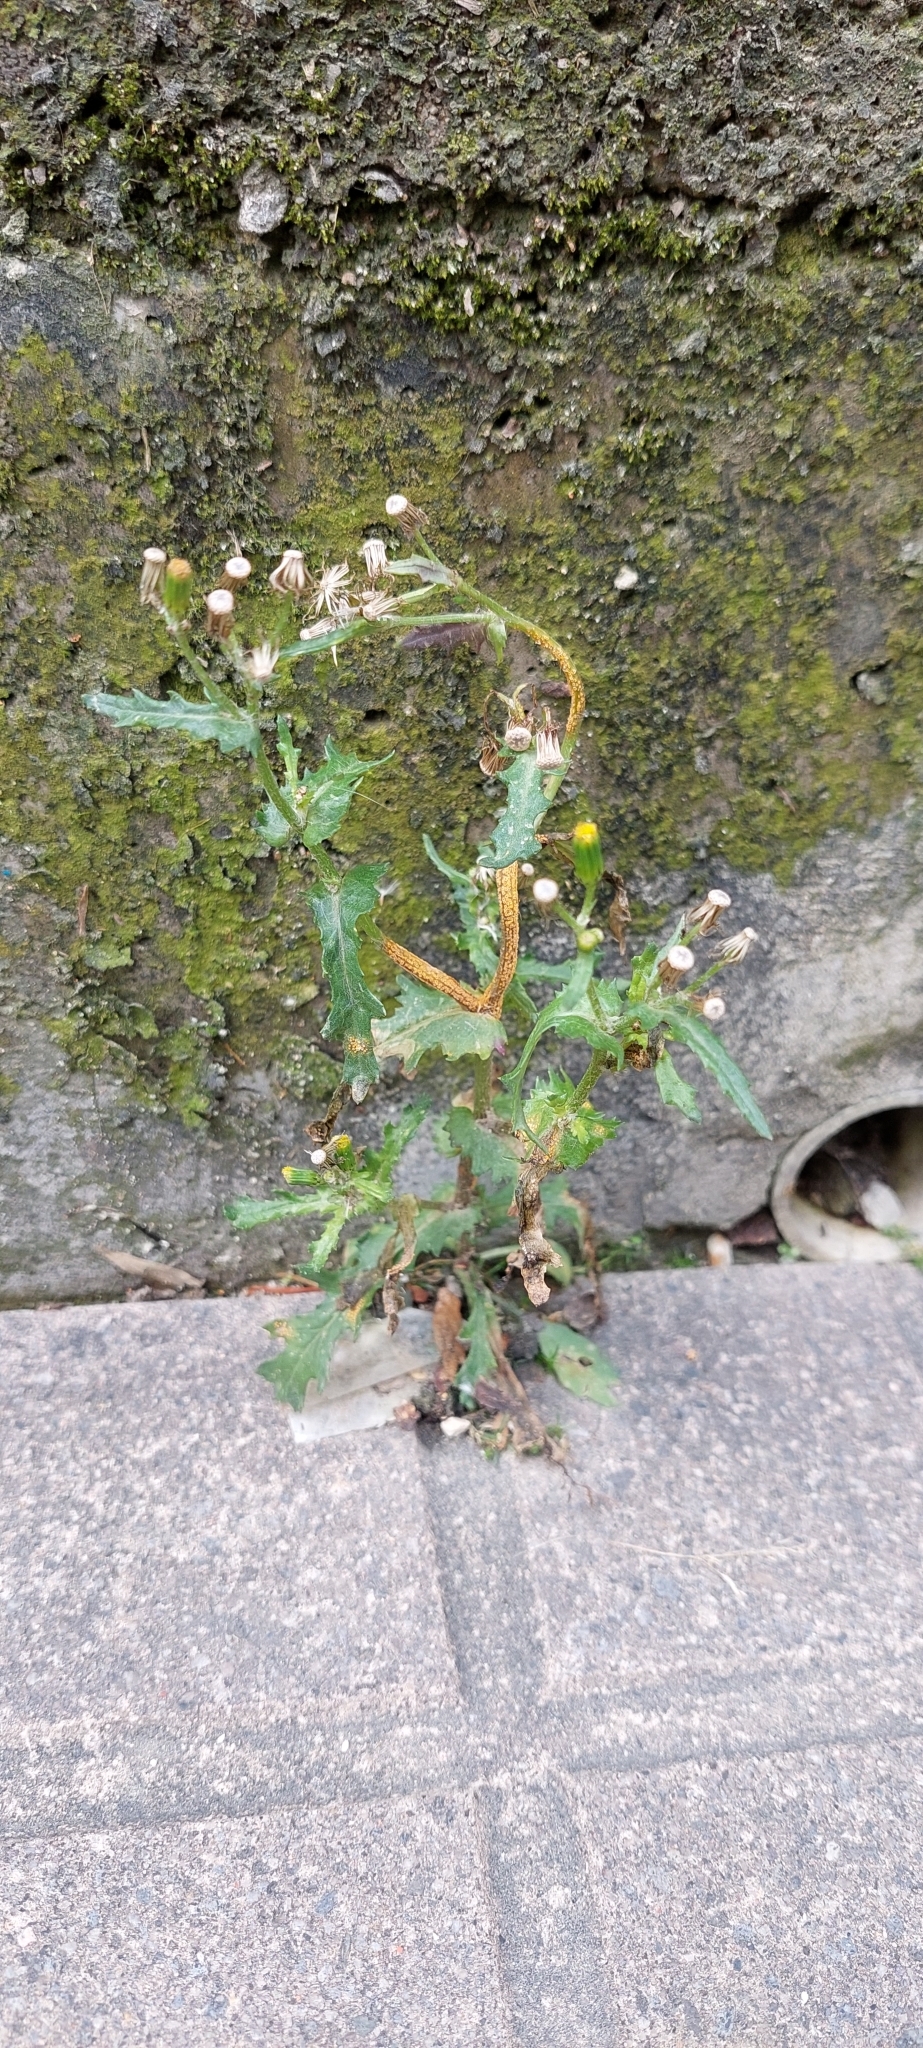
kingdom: Plantae
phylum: Tracheophyta
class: Magnoliopsida
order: Asterales
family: Asteraceae
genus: Senecio
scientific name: Senecio vulgaris
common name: Old-man-in-the-spring
